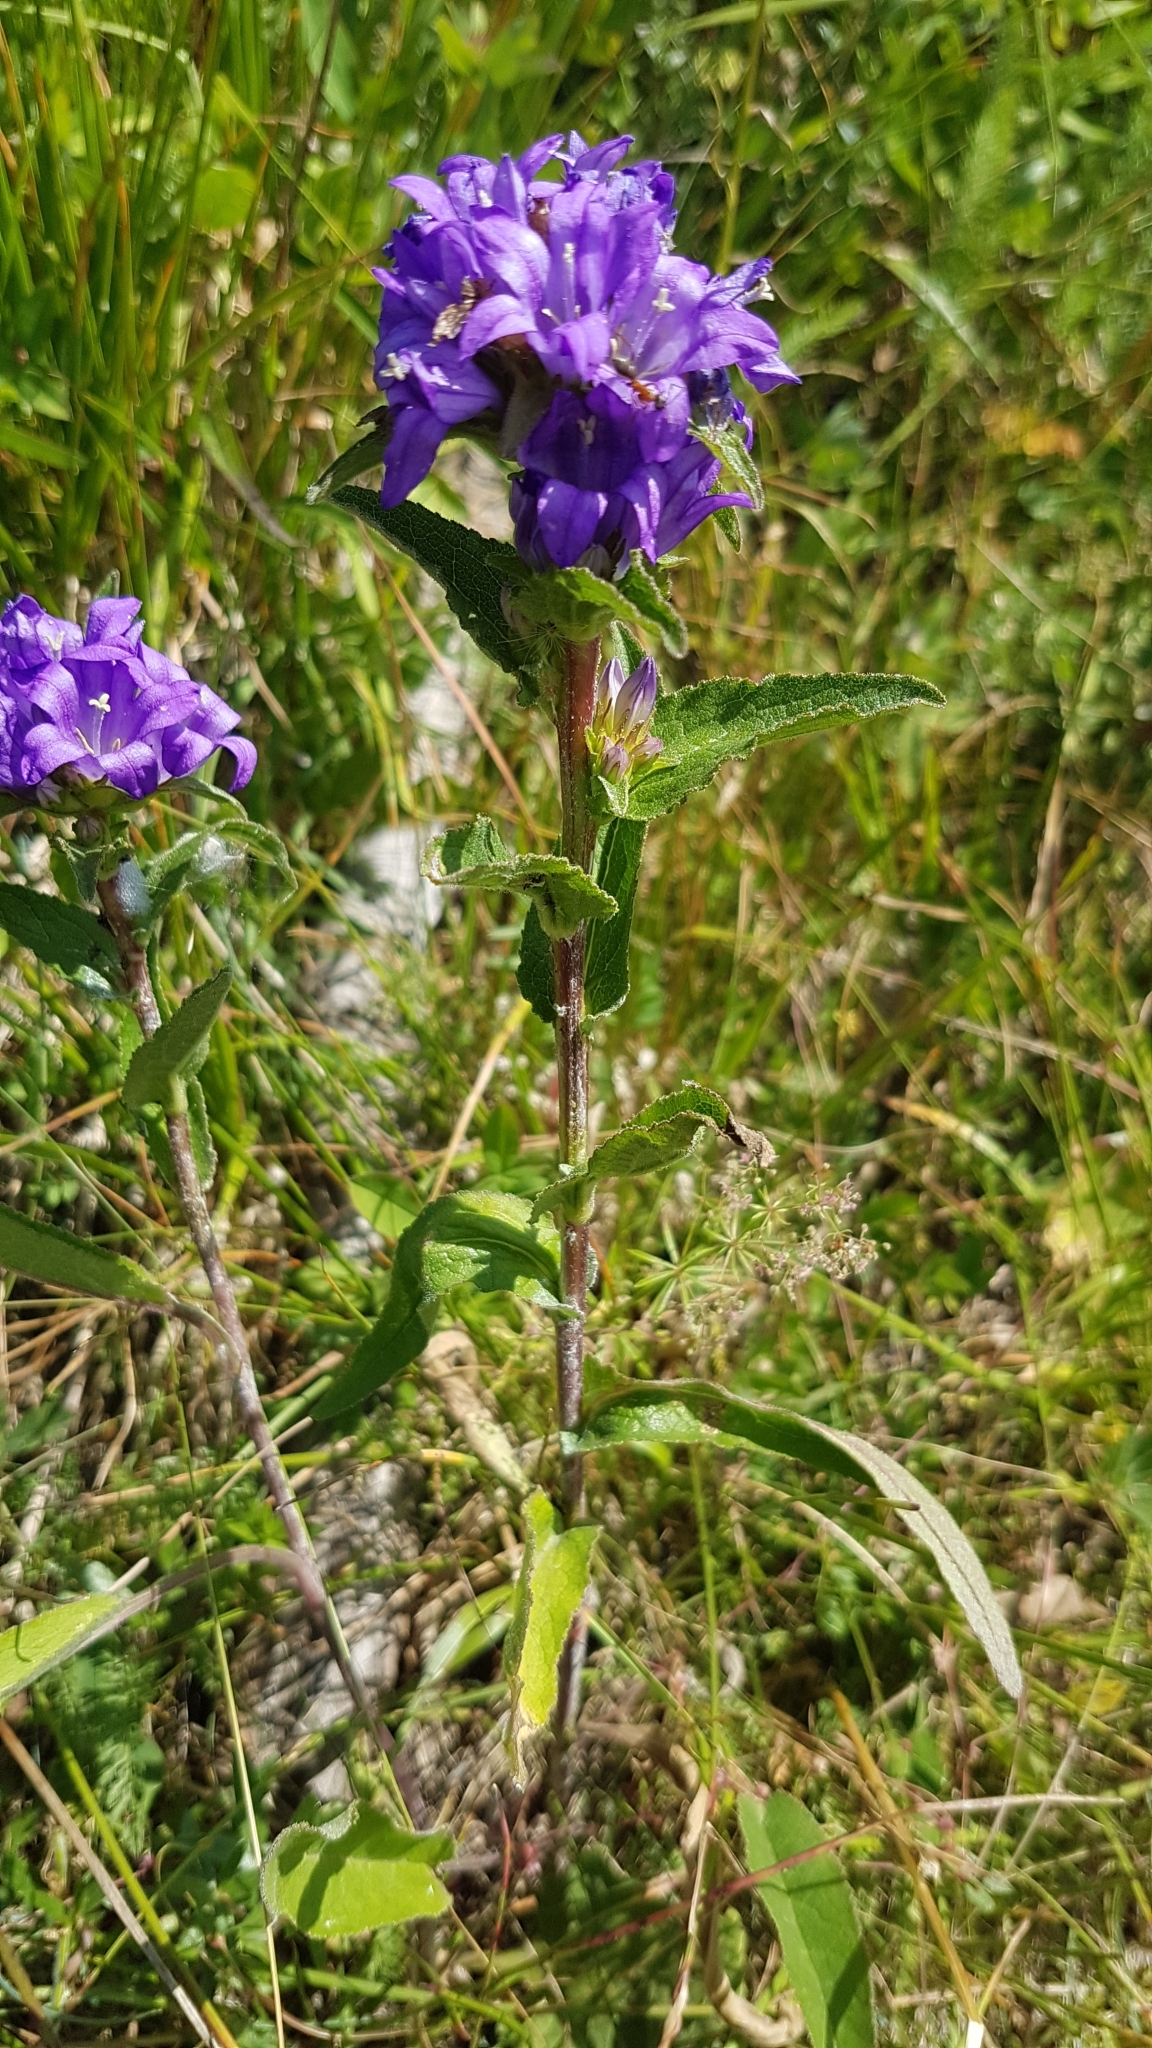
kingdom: Plantae
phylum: Tracheophyta
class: Magnoliopsida
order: Asterales
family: Campanulaceae
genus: Campanula
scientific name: Campanula glomerata
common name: Clustered bellflower
